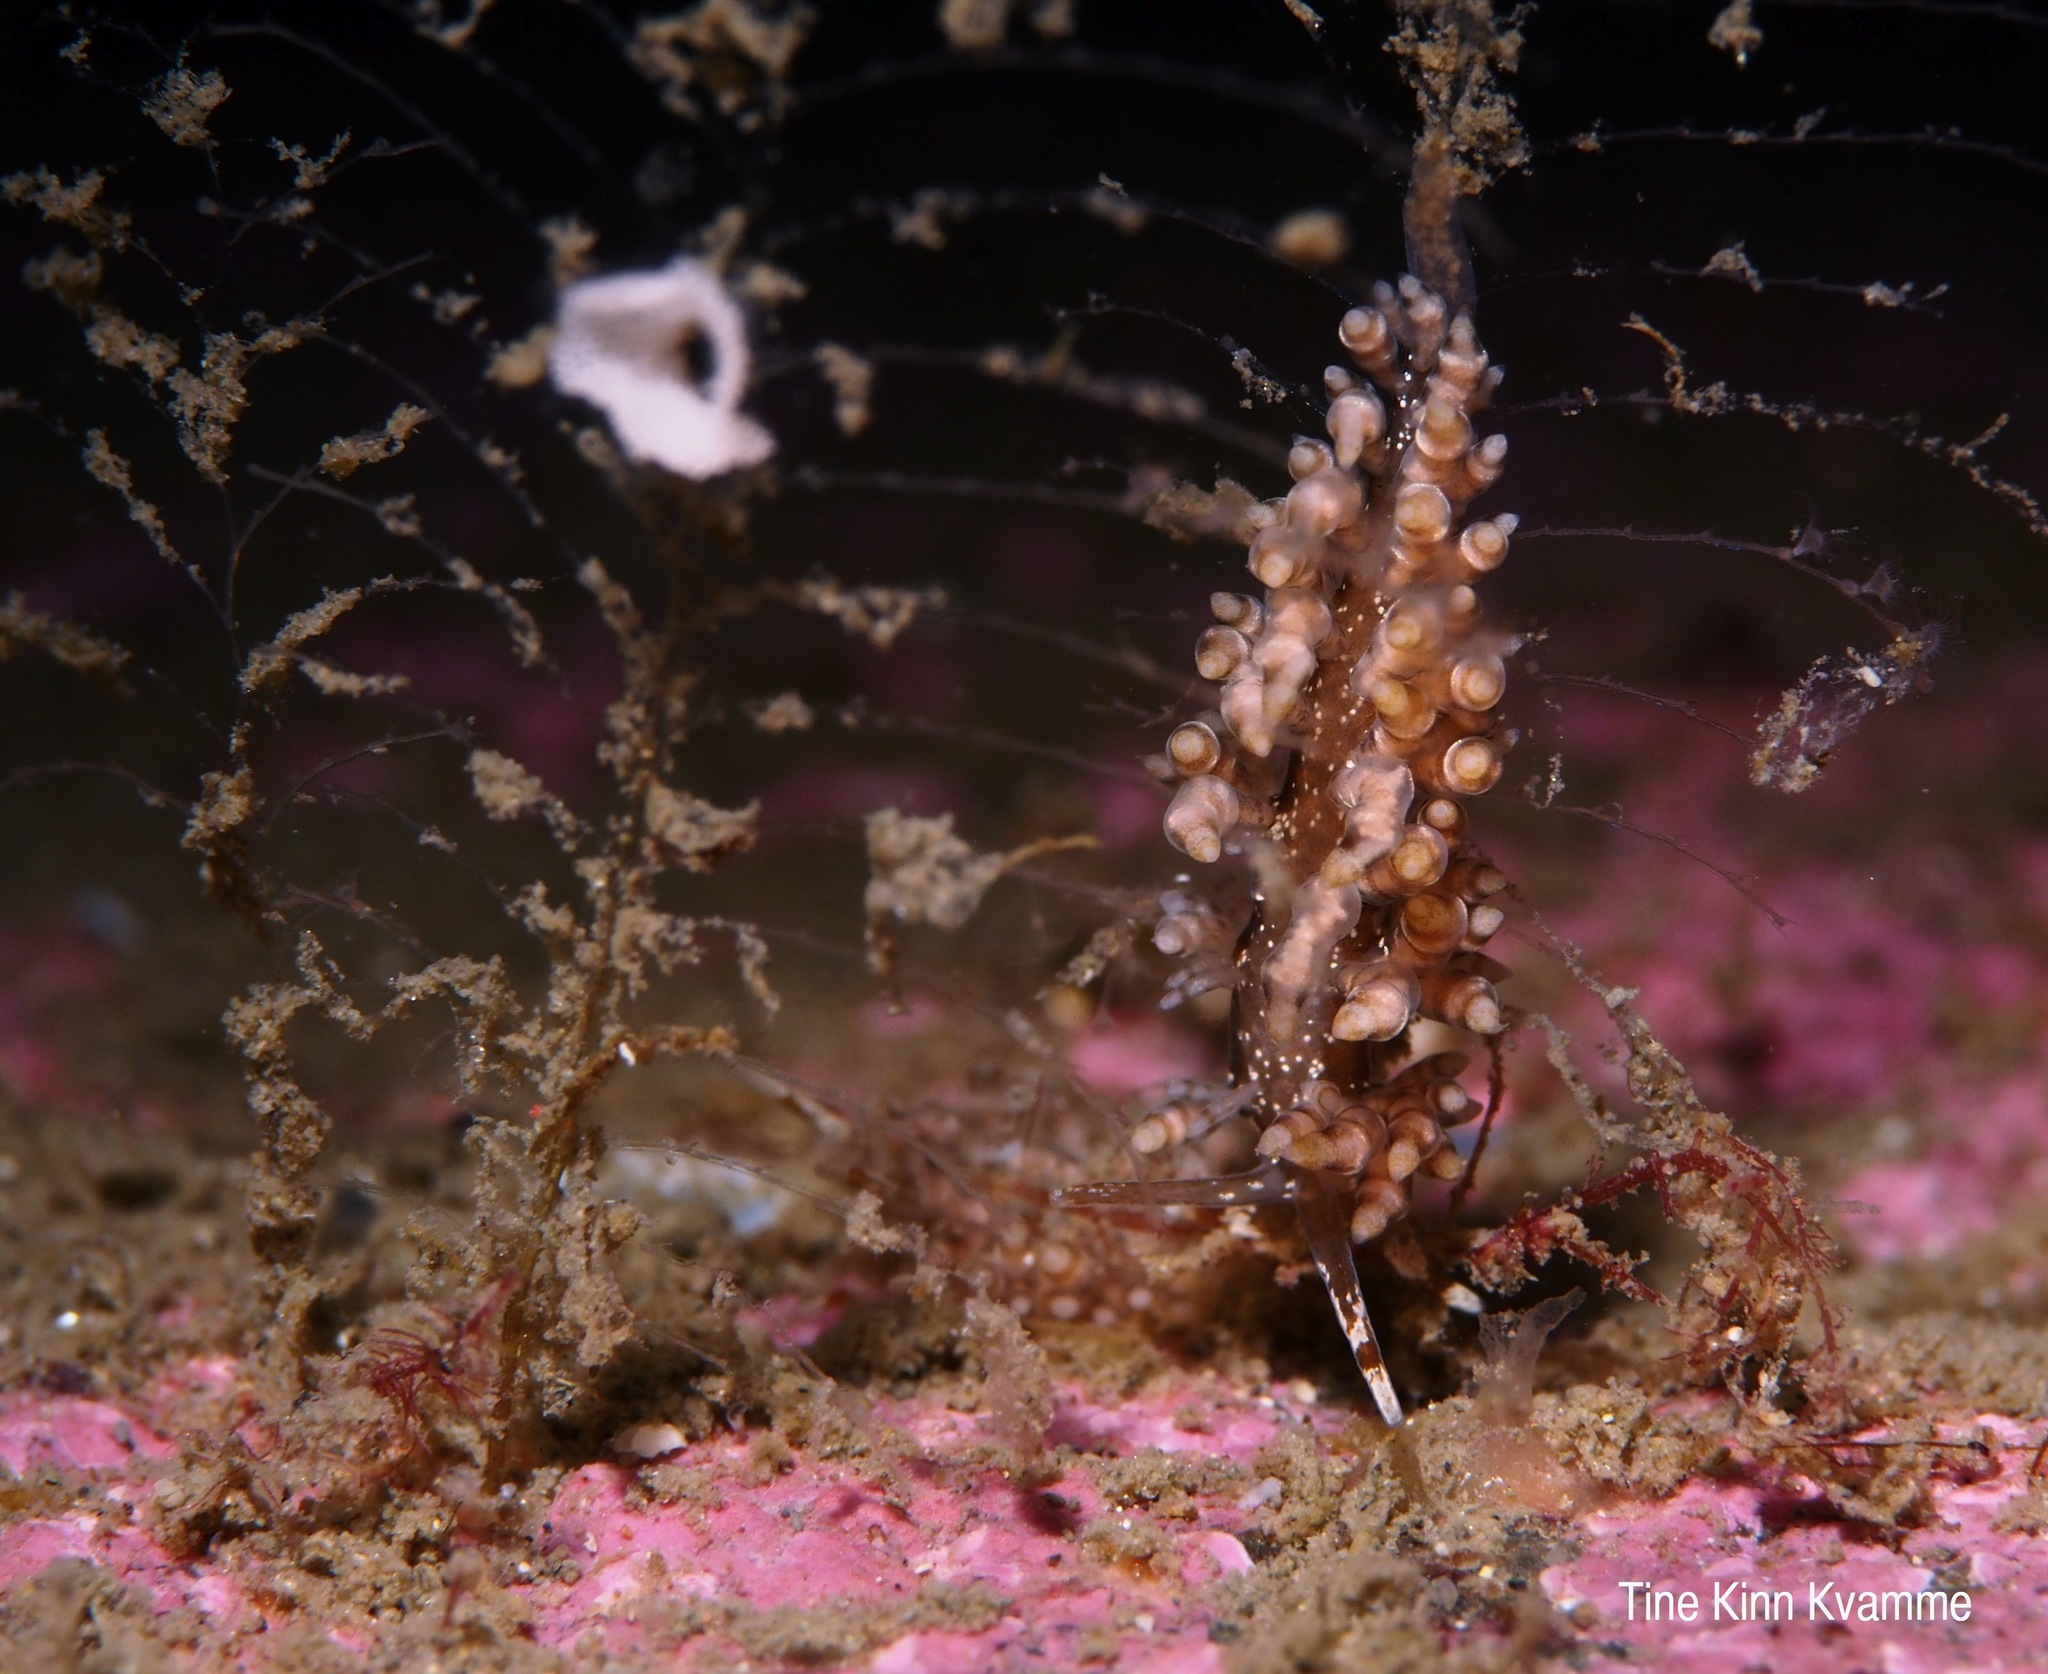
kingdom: Animalia
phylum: Mollusca
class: Gastropoda
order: Nudibranchia
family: Eubranchidae
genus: Eubranchus
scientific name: Eubranchus vittatus
